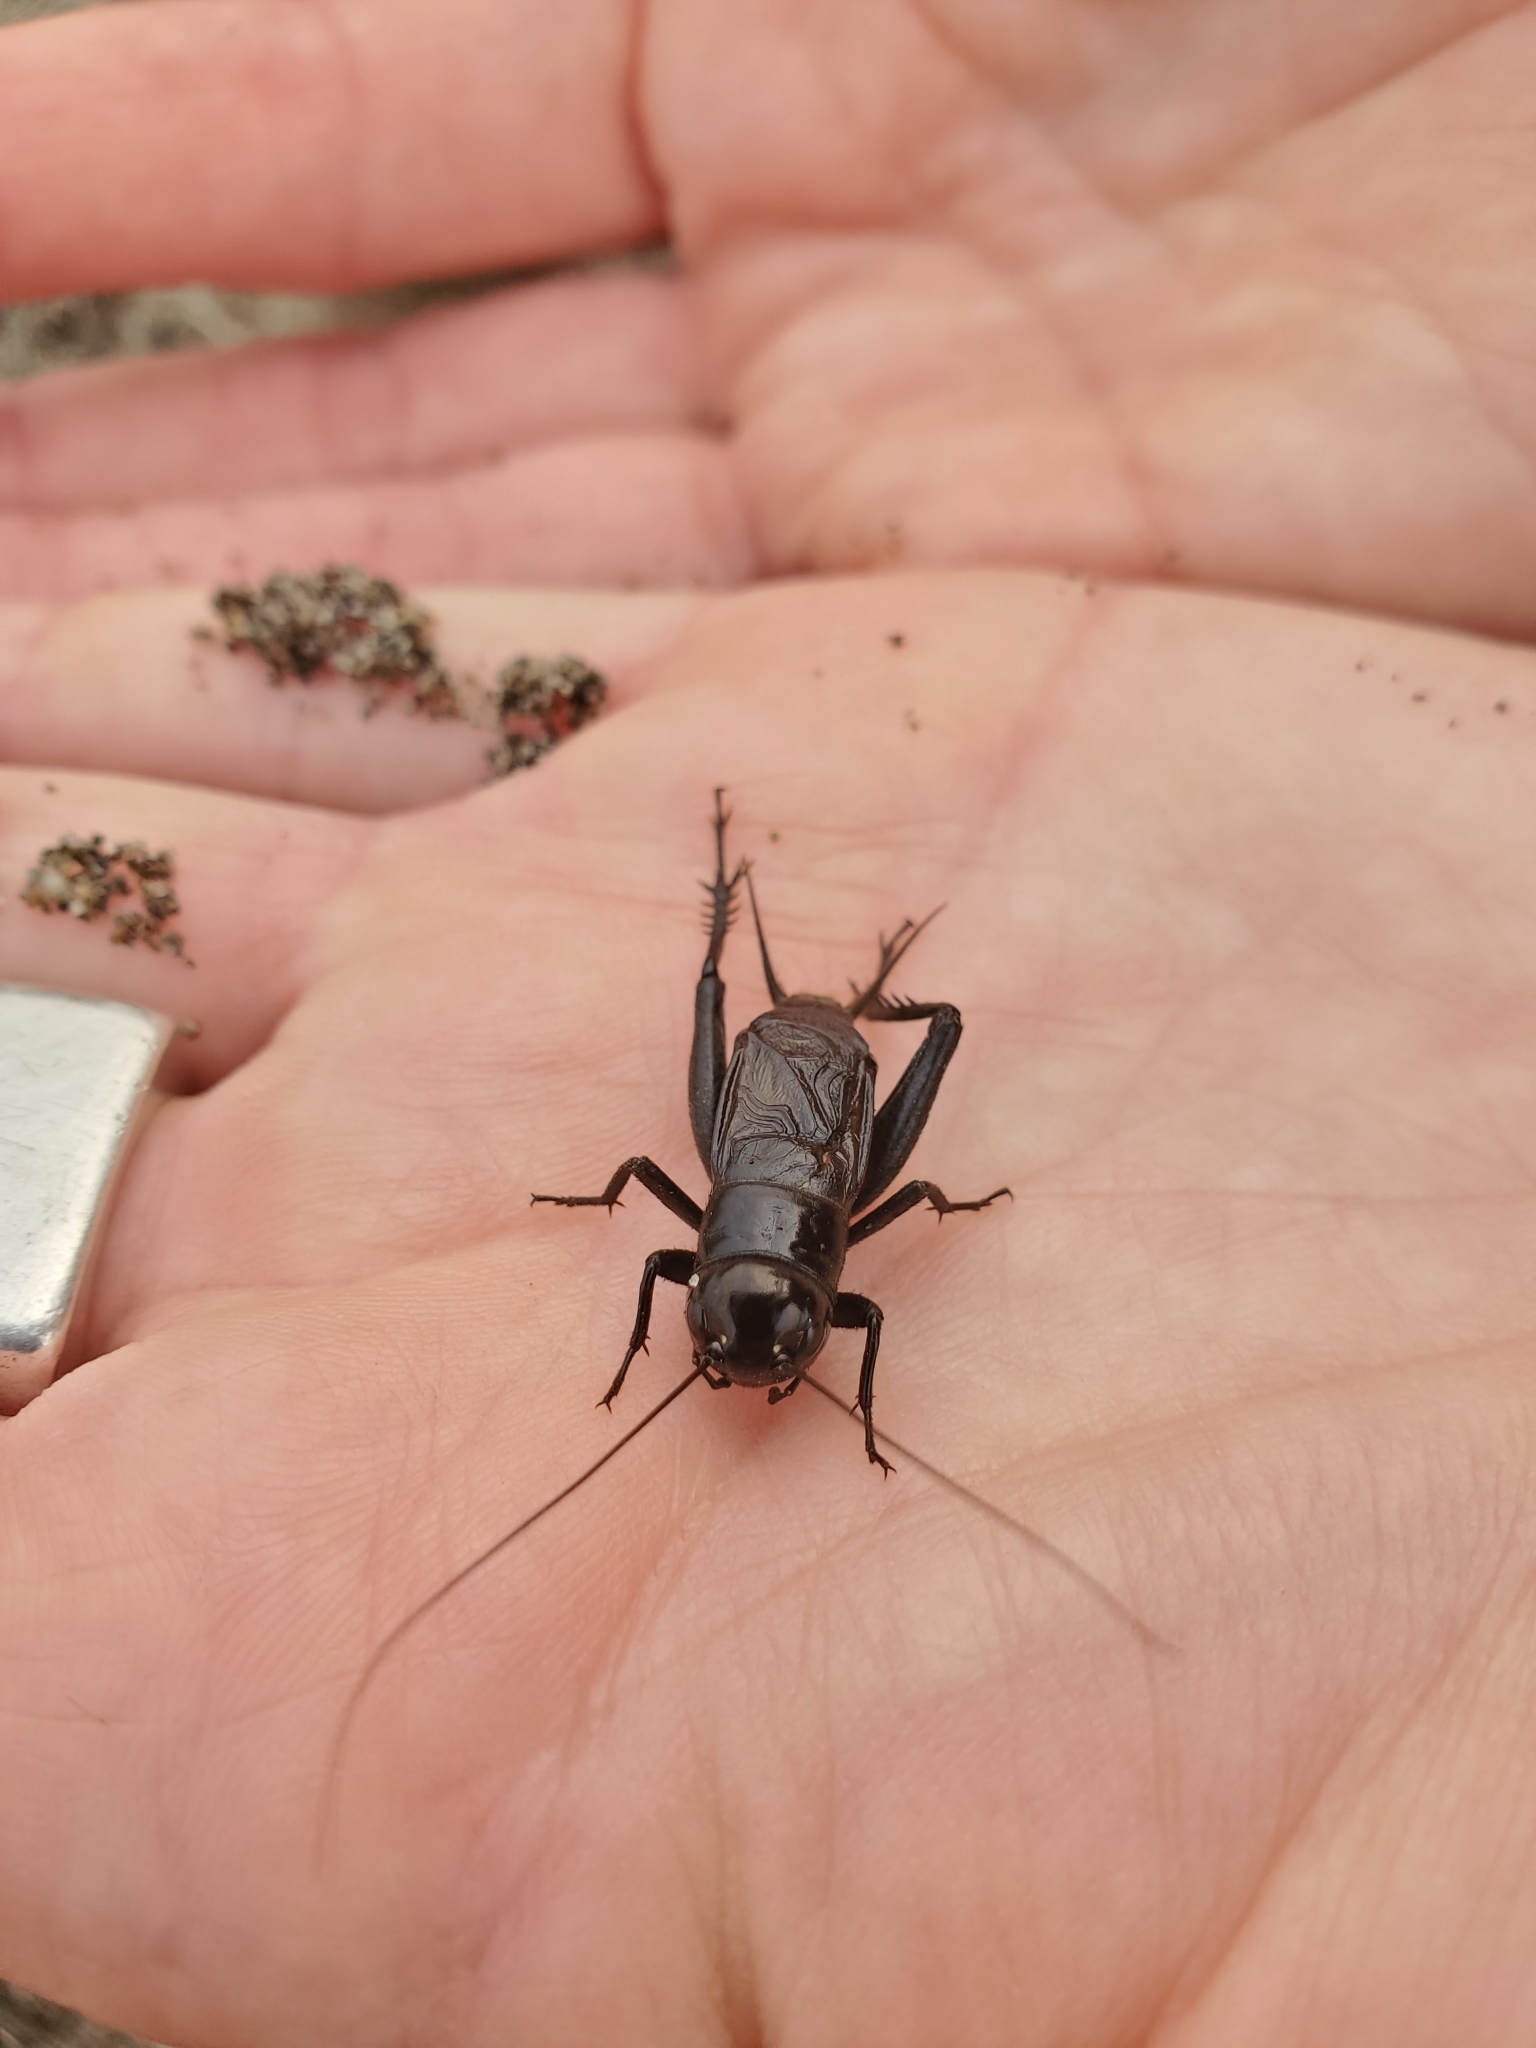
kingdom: Animalia
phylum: Arthropoda
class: Insecta
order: Orthoptera
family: Gryllidae
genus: Gryllus
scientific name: Gryllus pennsylvanicus
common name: Fall field cricket
